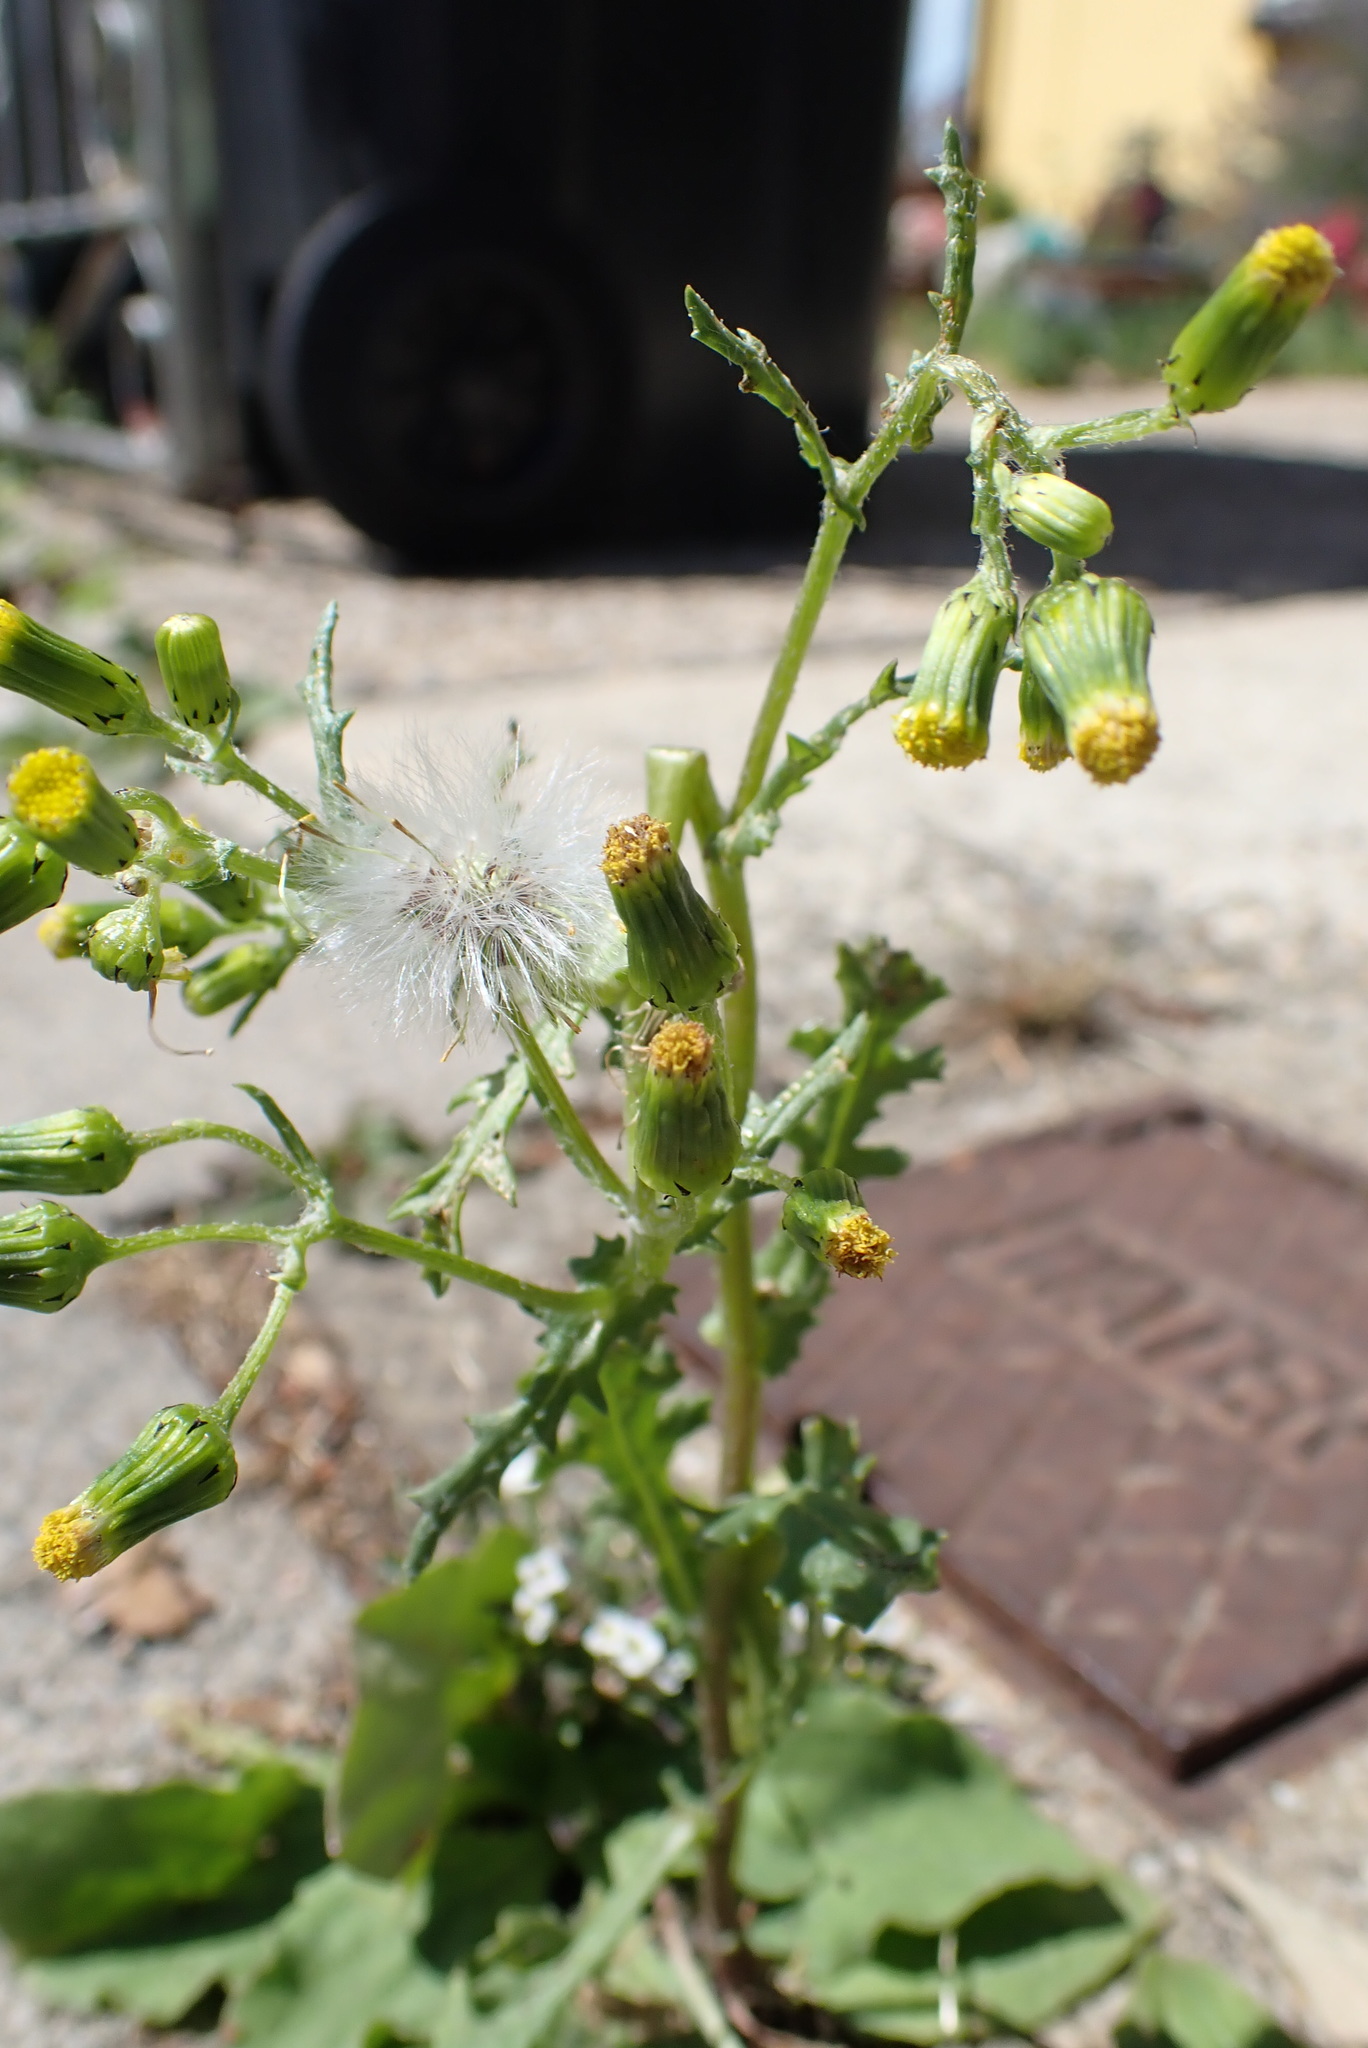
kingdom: Plantae
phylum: Tracheophyta
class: Magnoliopsida
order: Asterales
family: Asteraceae
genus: Senecio
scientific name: Senecio vulgaris
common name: Old-man-in-the-spring
